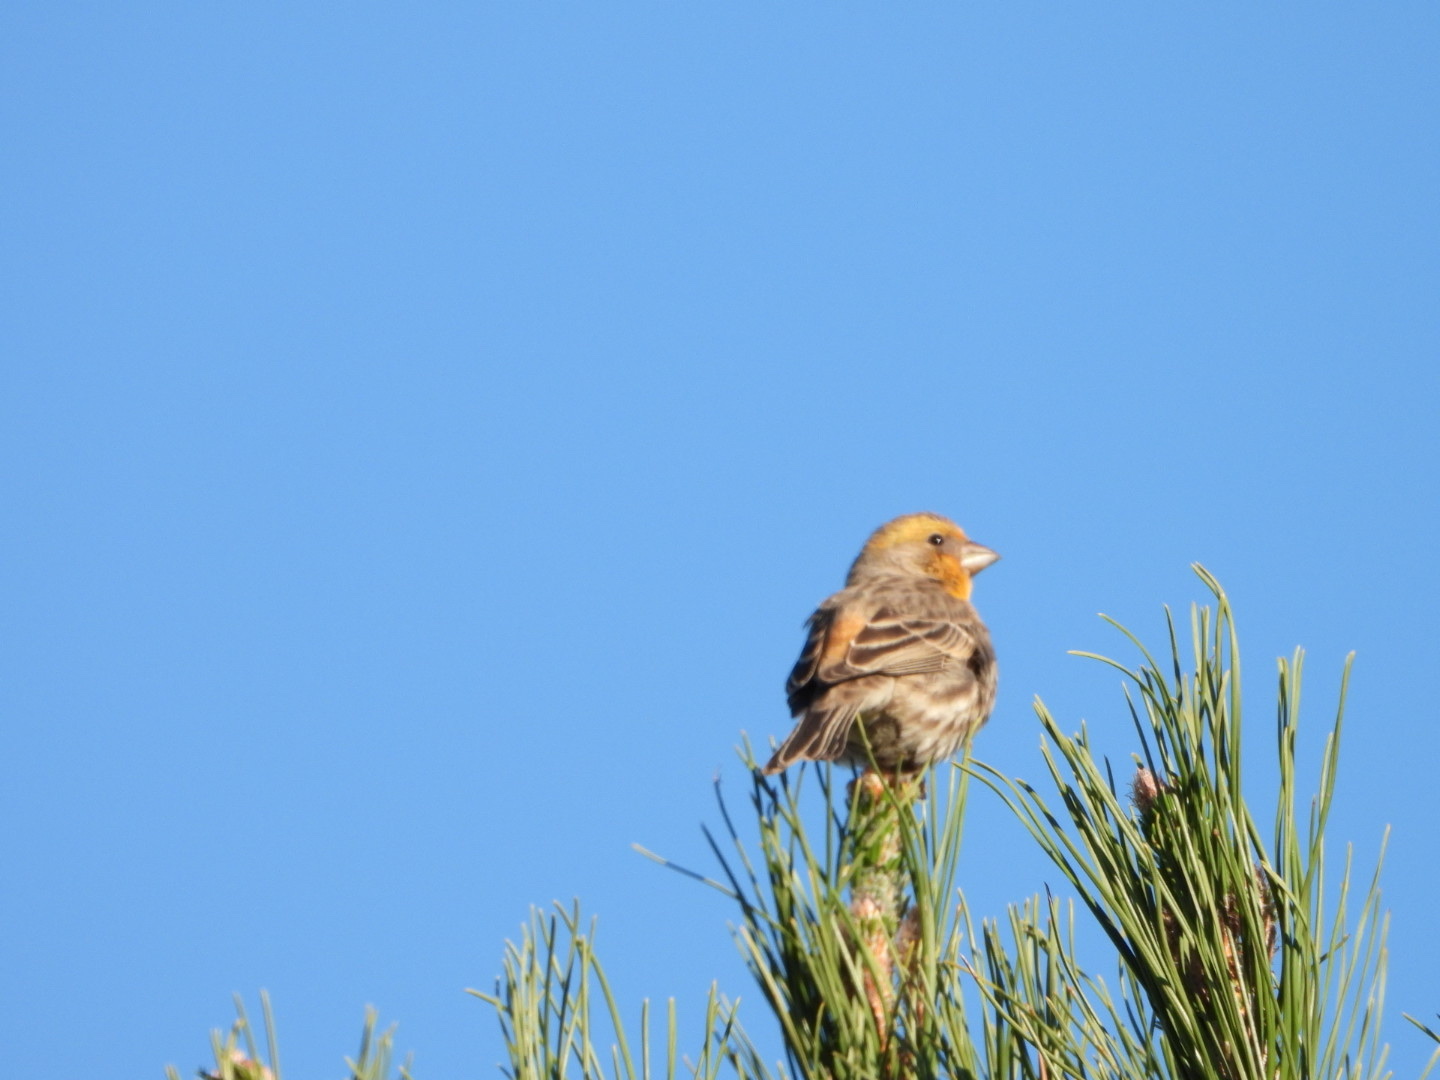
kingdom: Animalia
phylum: Chordata
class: Aves
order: Passeriformes
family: Fringillidae
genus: Haemorhous
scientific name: Haemorhous mexicanus
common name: House finch
